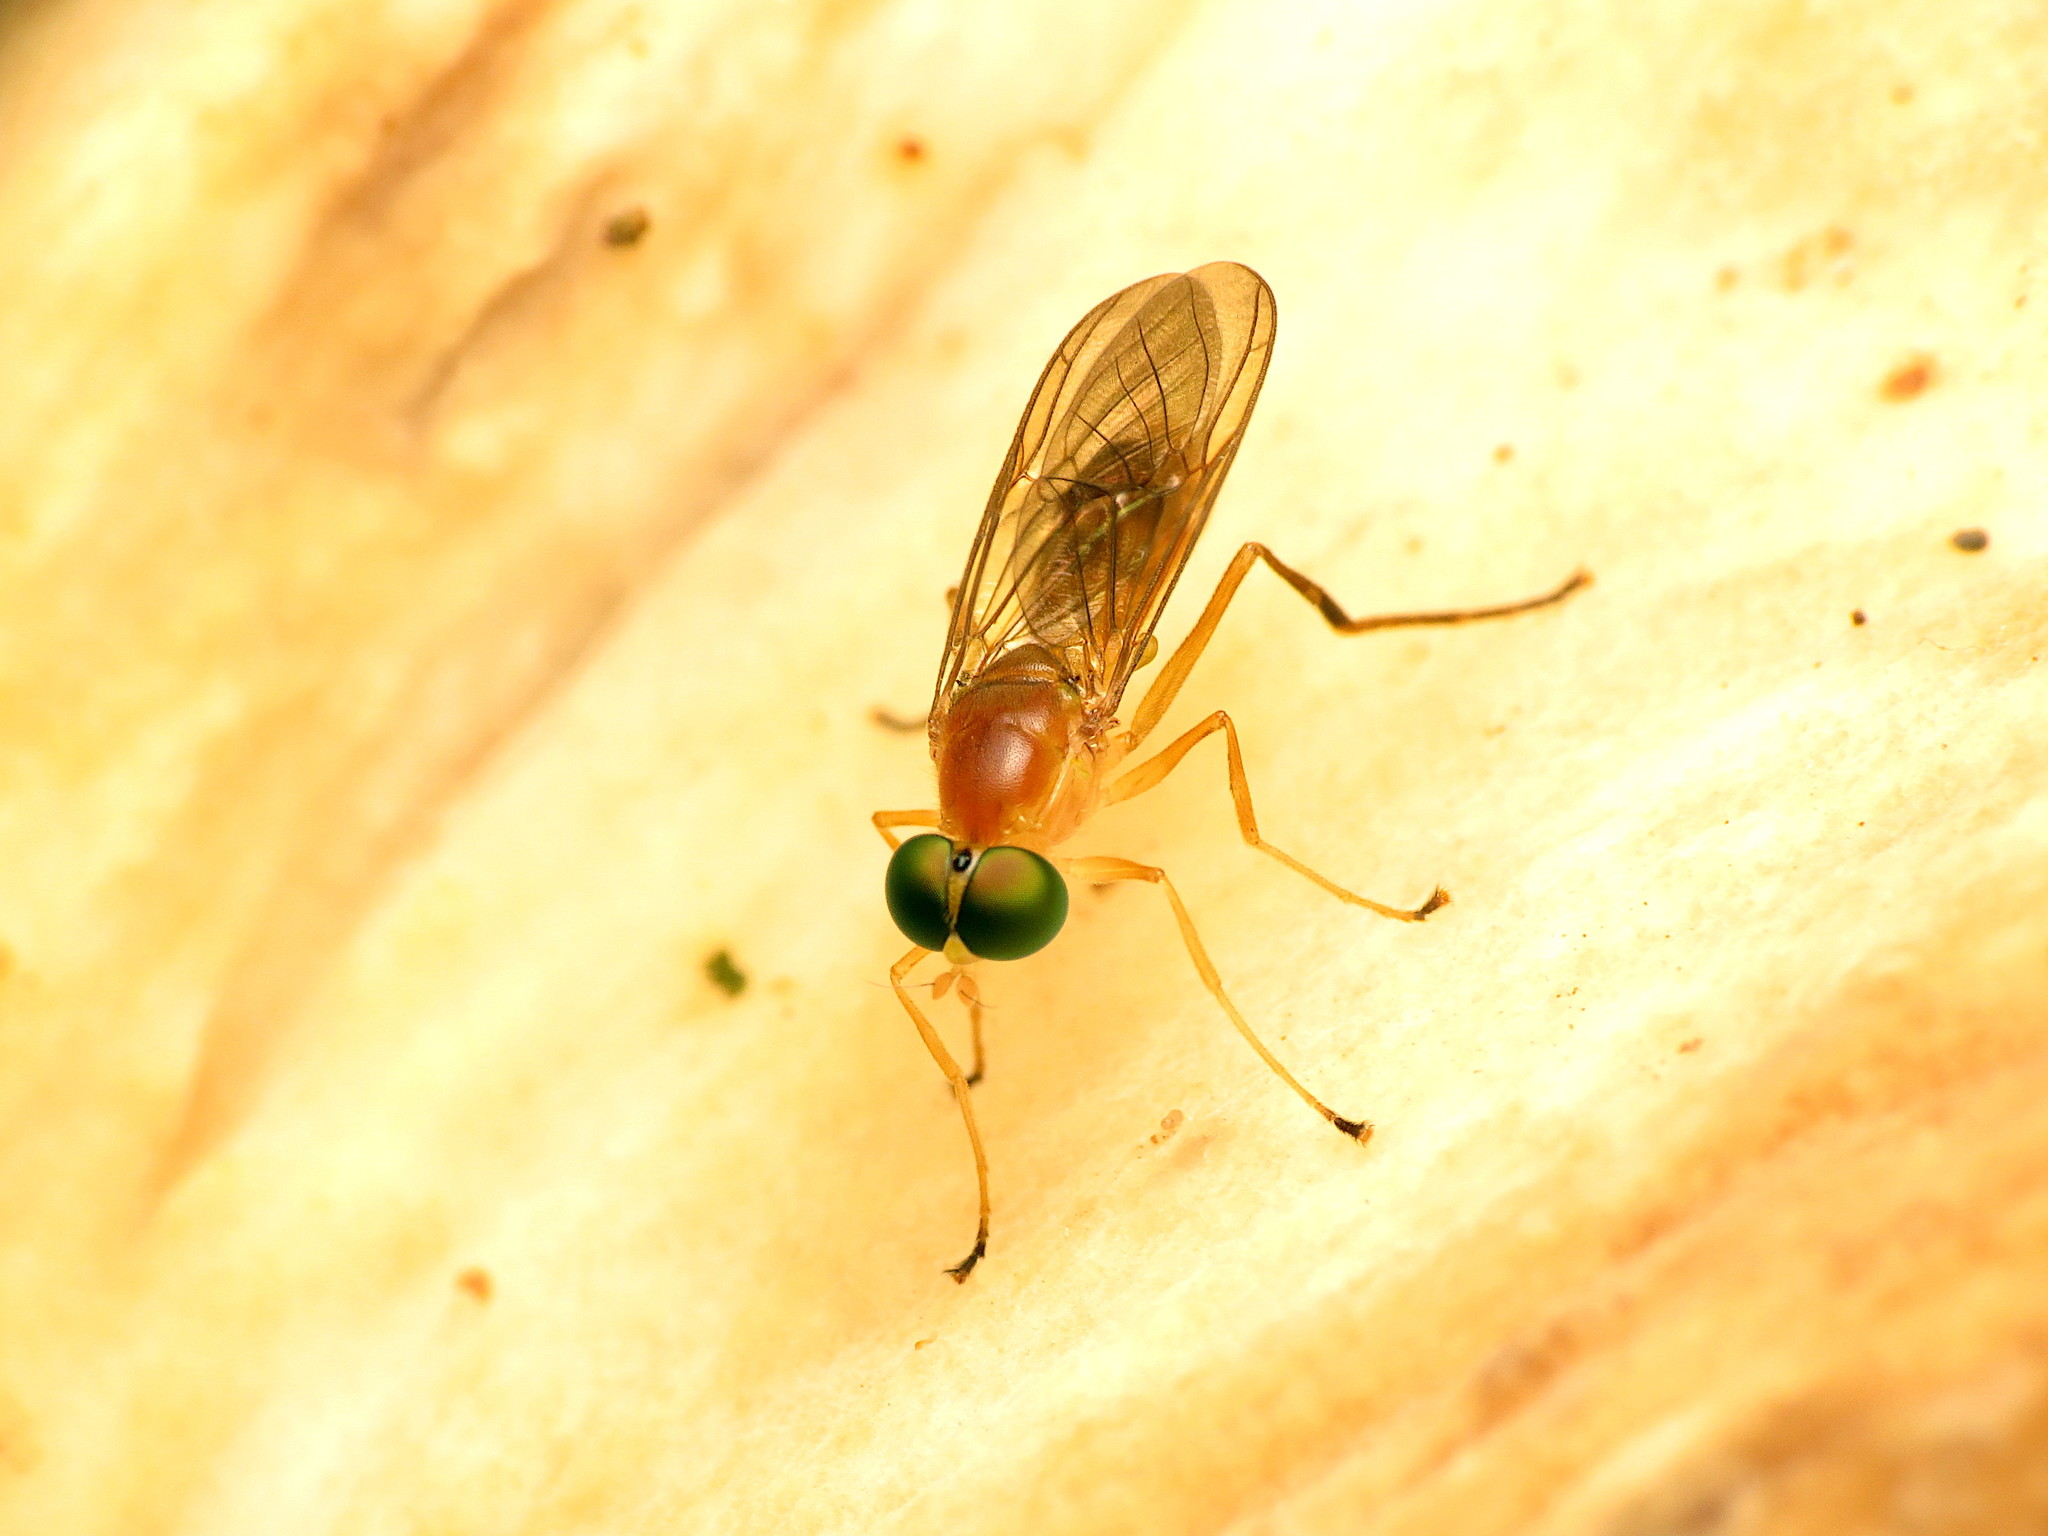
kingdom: Animalia
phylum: Arthropoda
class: Insecta
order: Diptera
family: Stratiomyidae
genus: Ptecticus
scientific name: Ptecticus trivittatus
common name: Compost fly
